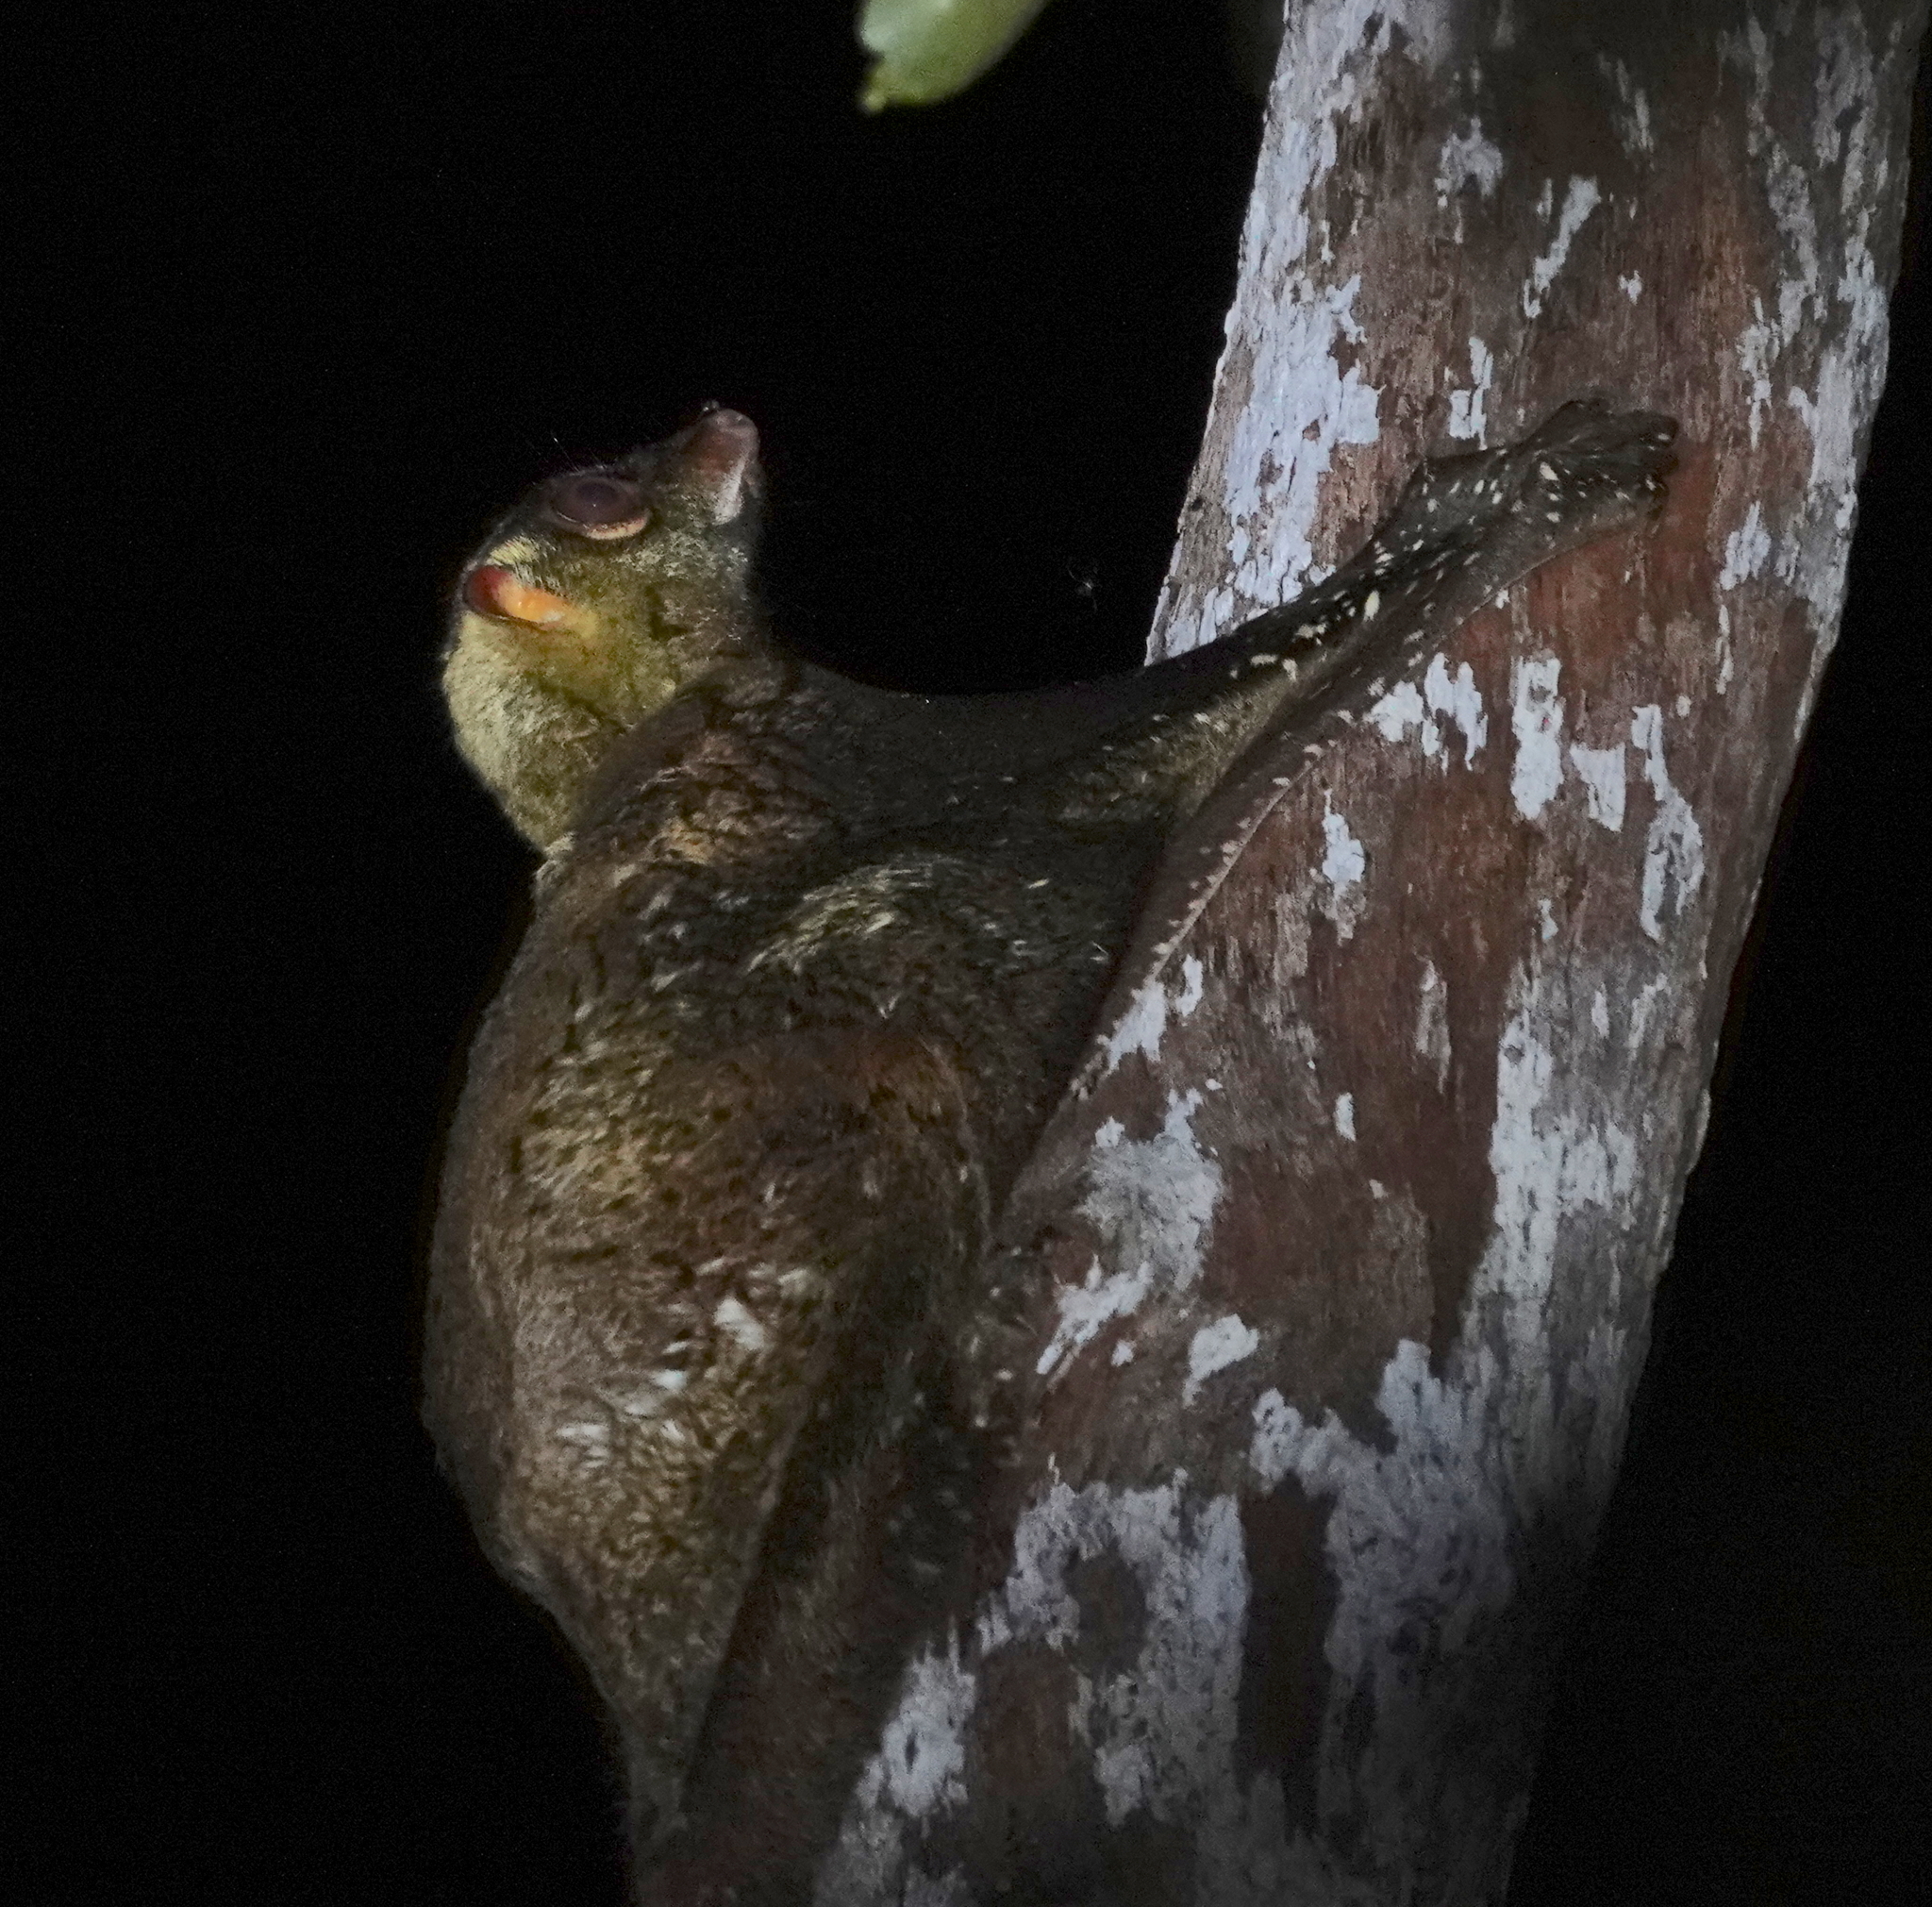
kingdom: Animalia
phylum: Chordata
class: Mammalia
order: Dermoptera
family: Cynocephalidae
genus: Galeopterus
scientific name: Galeopterus variegatus
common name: Sunda flying lemur
